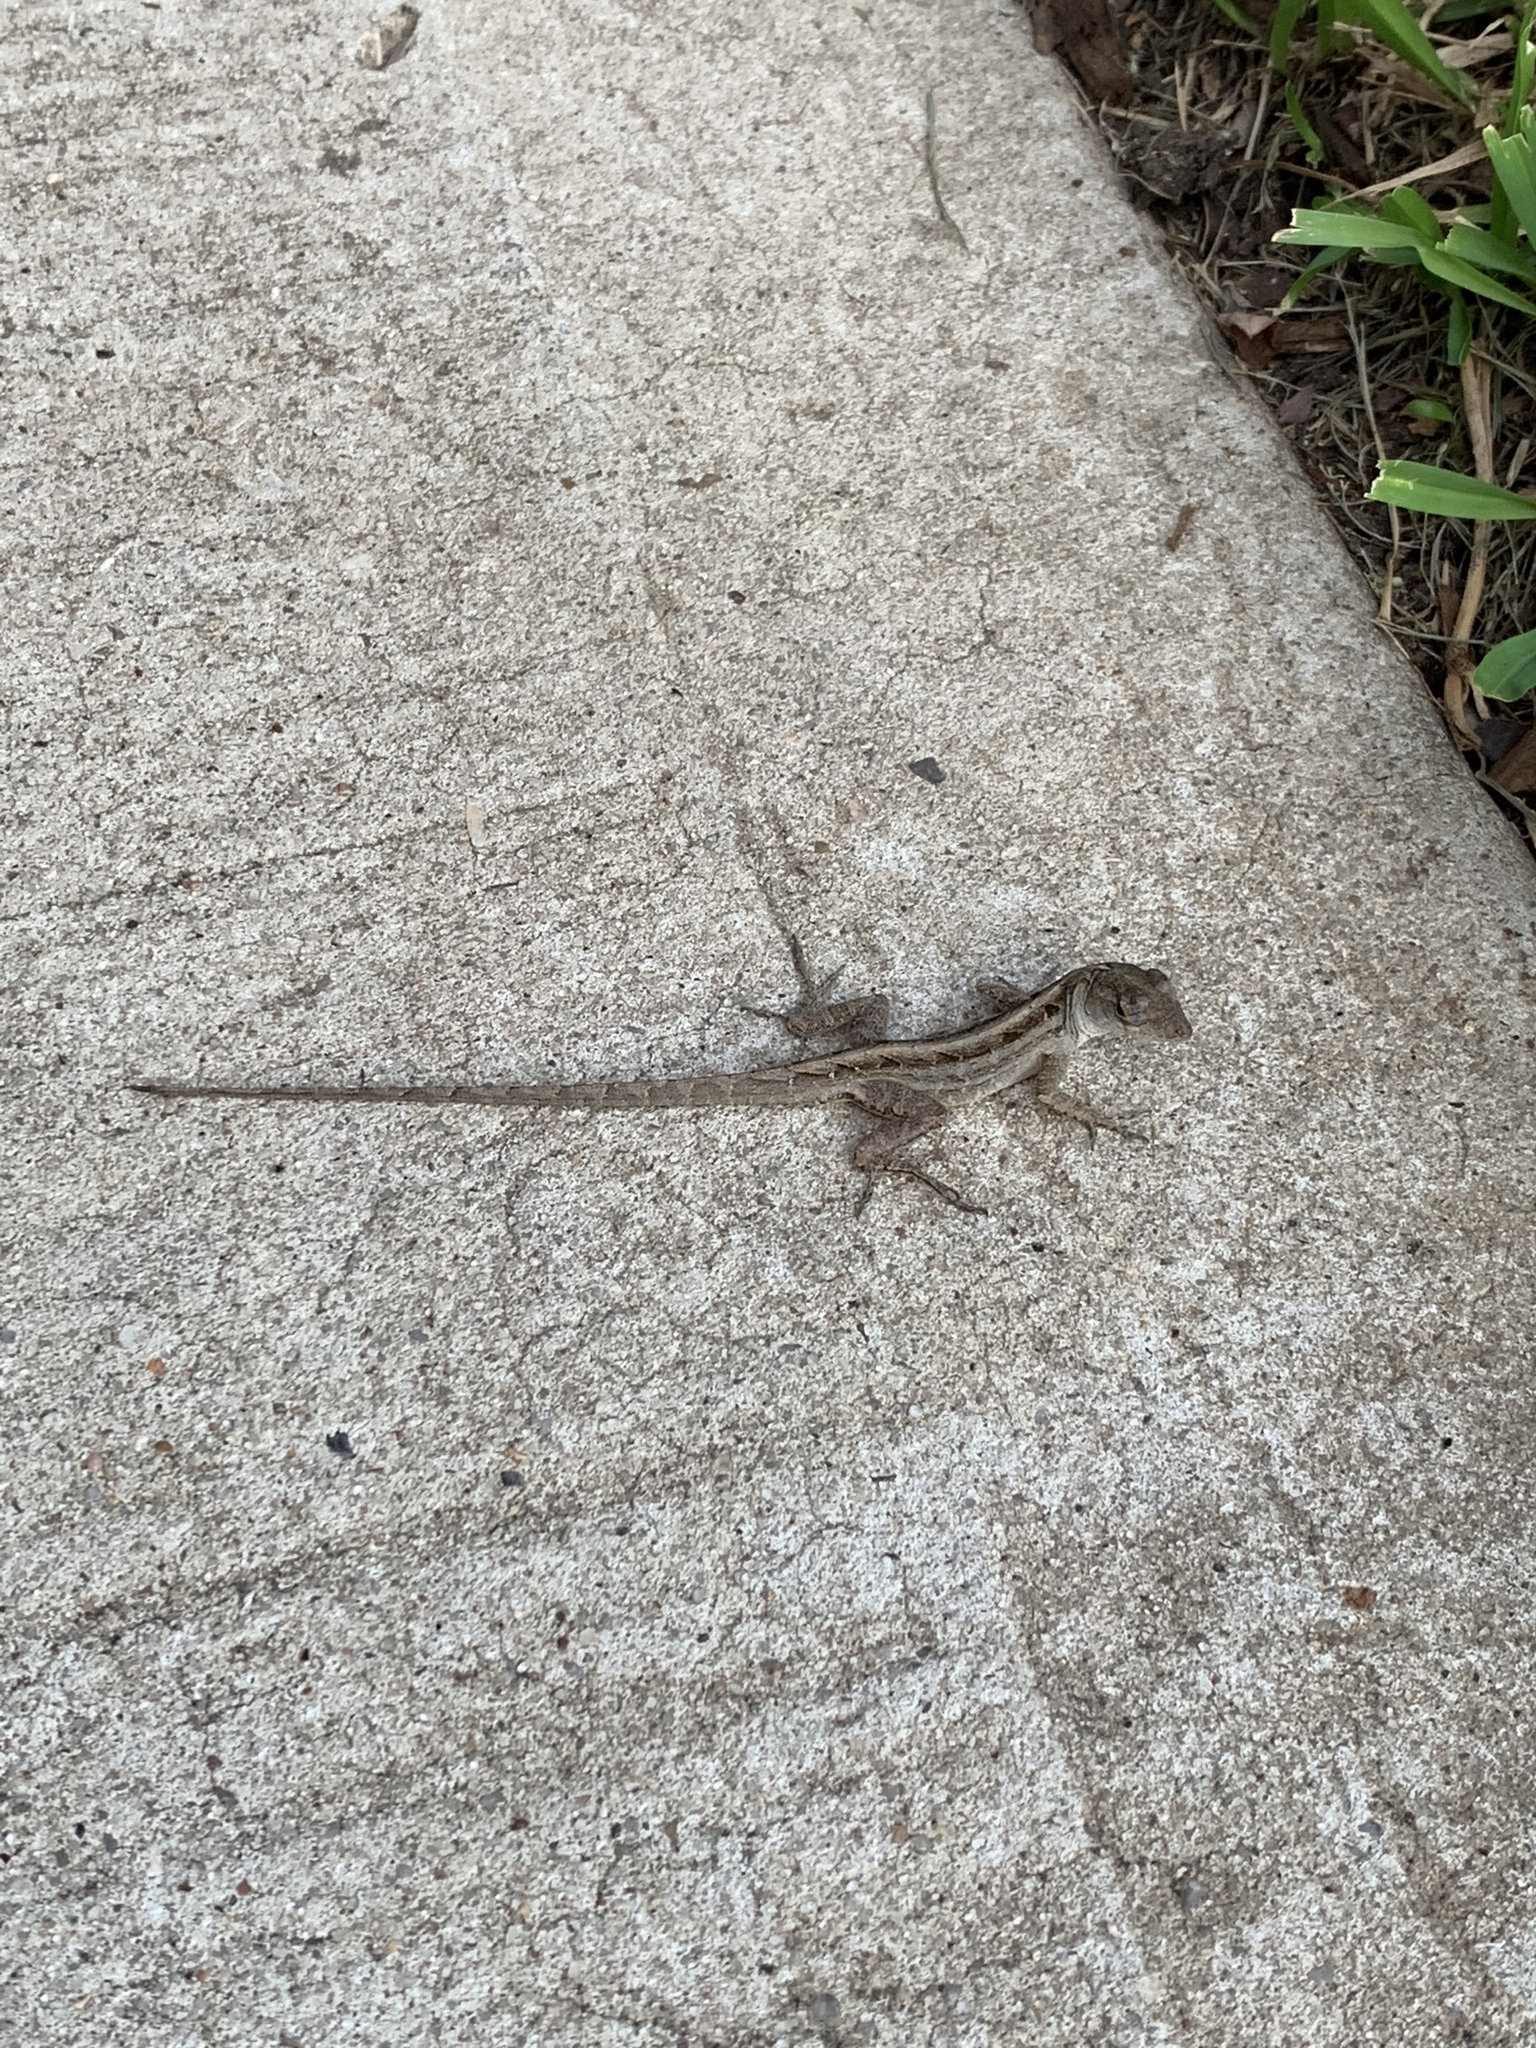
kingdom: Animalia
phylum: Chordata
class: Squamata
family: Dactyloidae
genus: Anolis
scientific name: Anolis sagrei
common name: Brown anole
